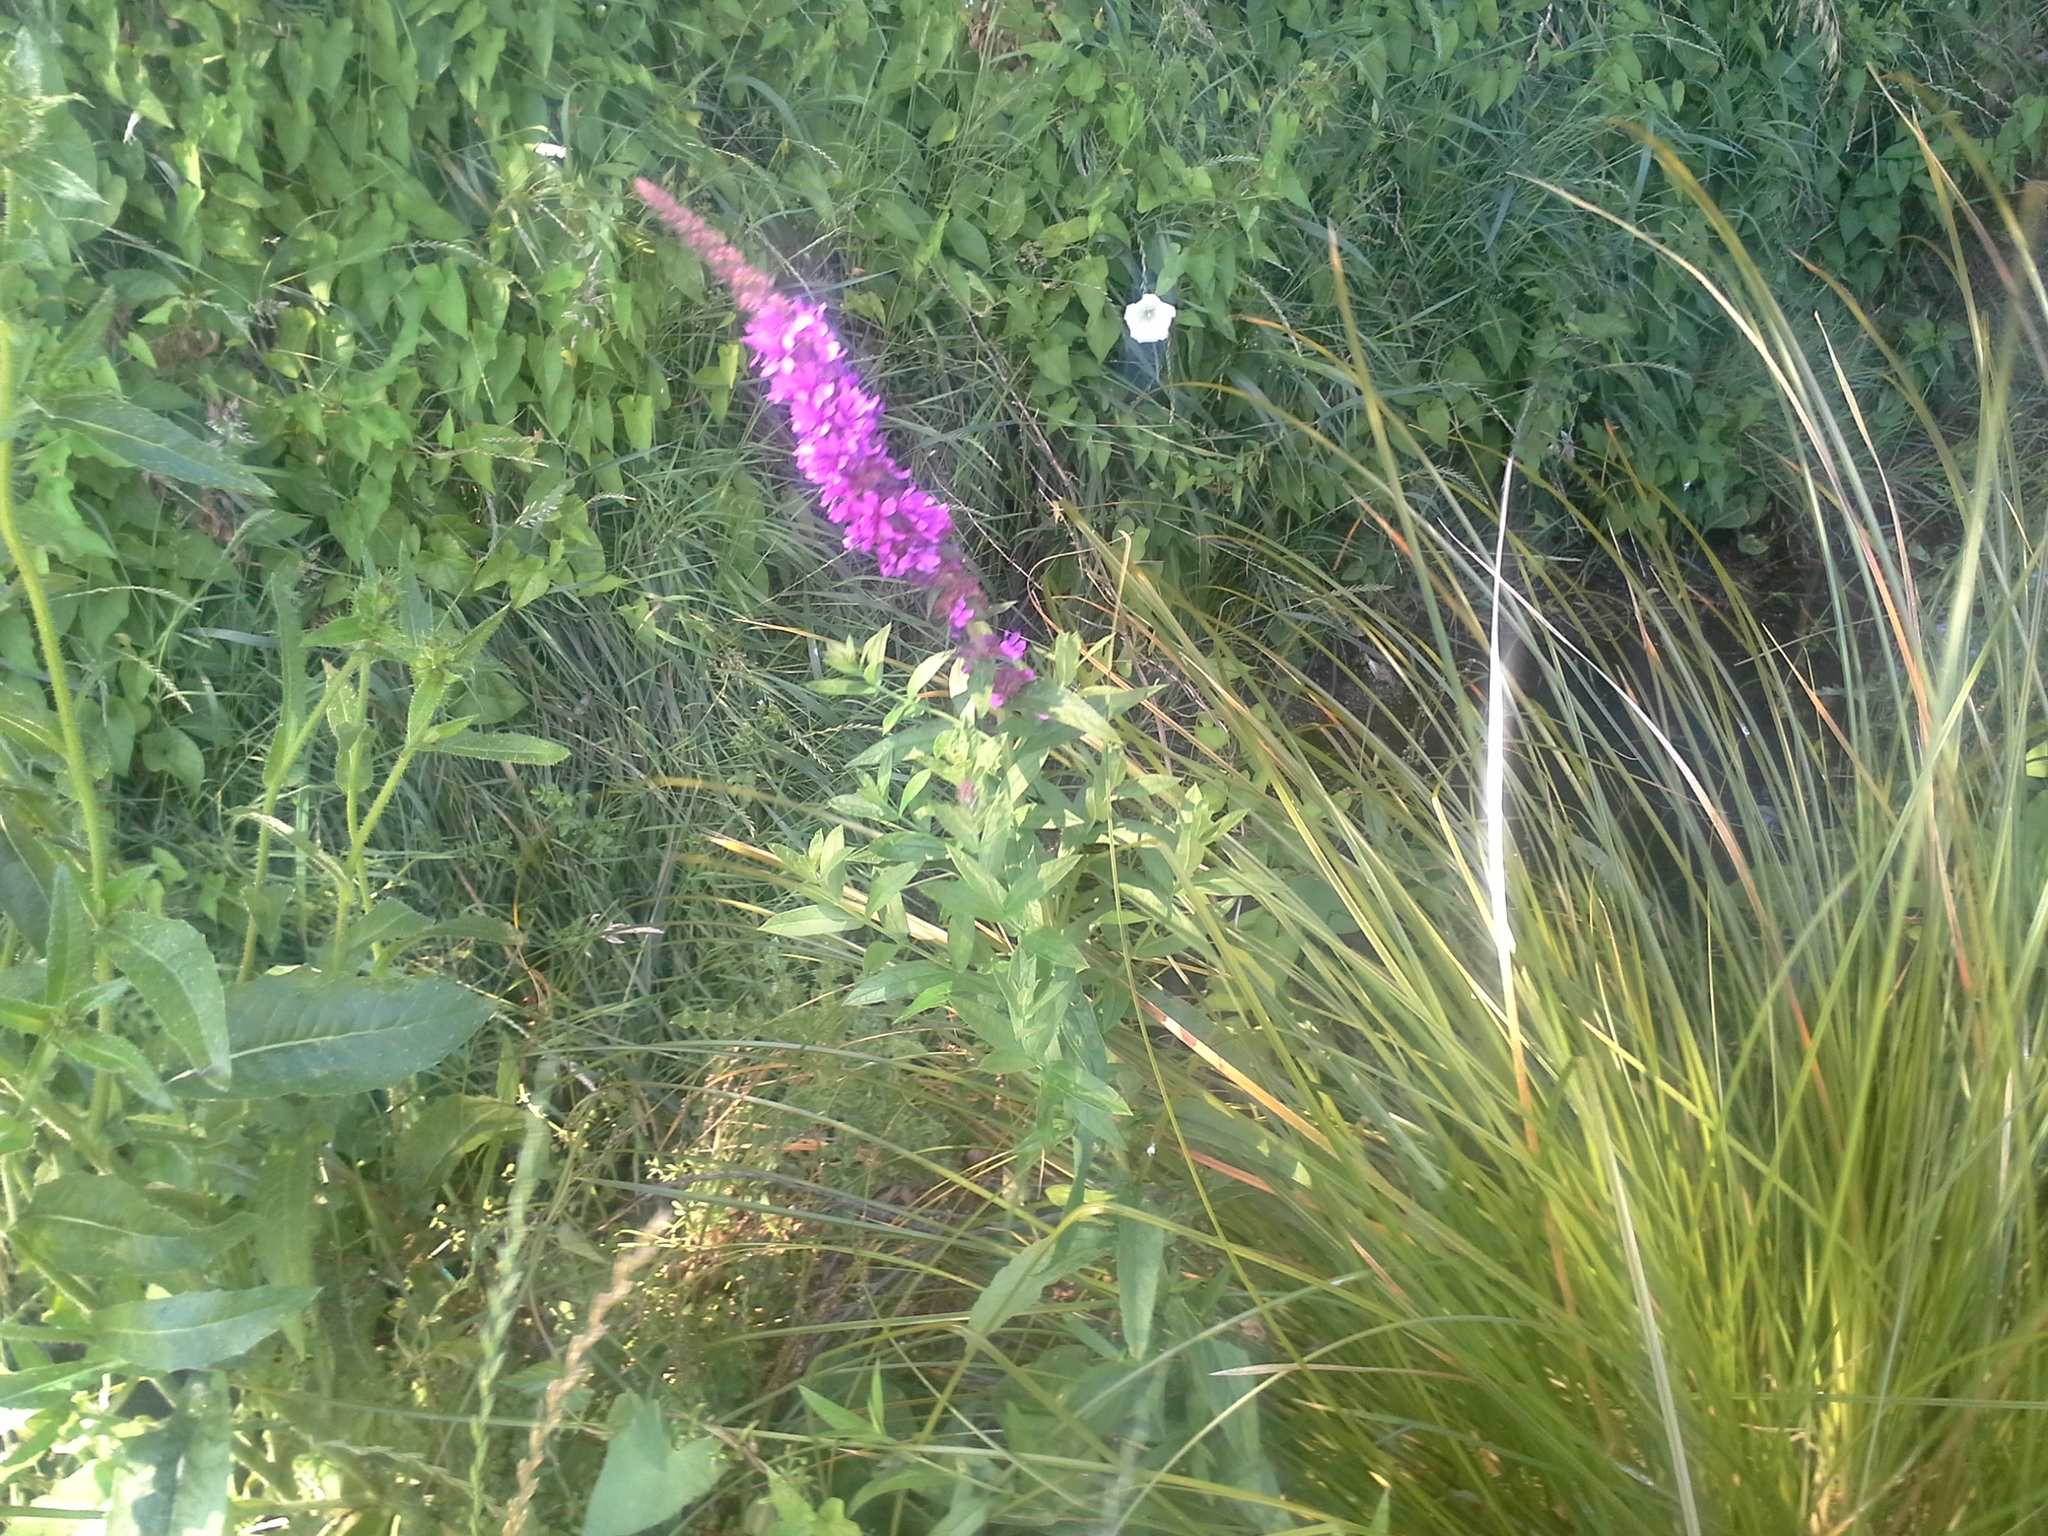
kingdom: Plantae
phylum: Tracheophyta
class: Magnoliopsida
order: Myrtales
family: Lythraceae
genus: Lythrum
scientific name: Lythrum salicaria
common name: Purple loosestrife
